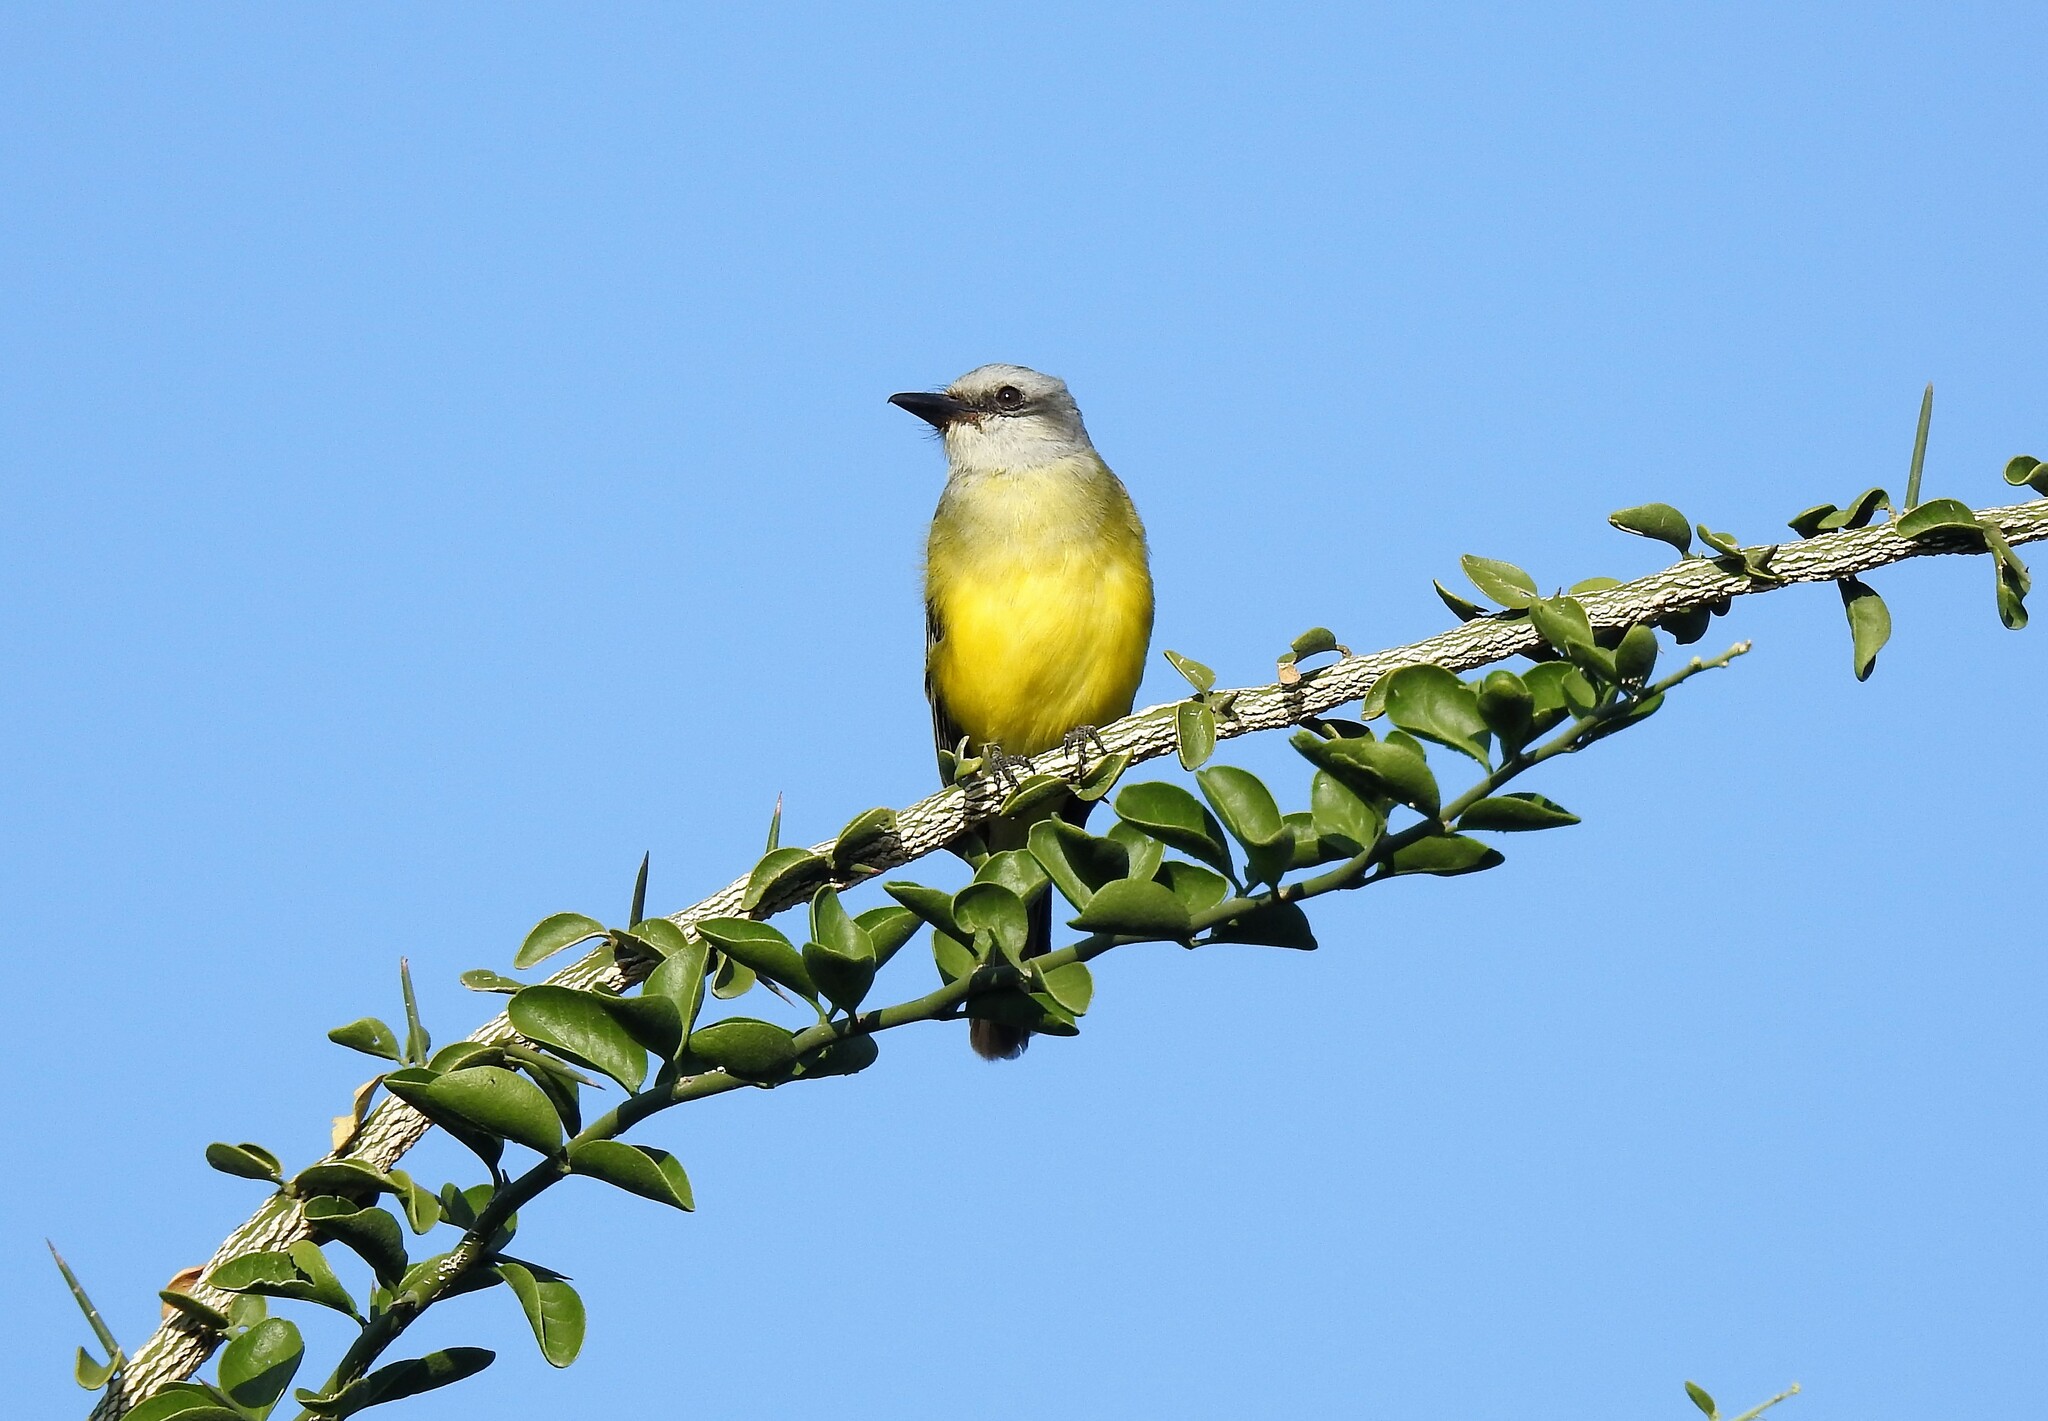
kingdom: Animalia
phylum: Chordata
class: Aves
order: Passeriformes
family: Tyrannidae
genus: Tyrannus
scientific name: Tyrannus melancholicus
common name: Tropical kingbird
